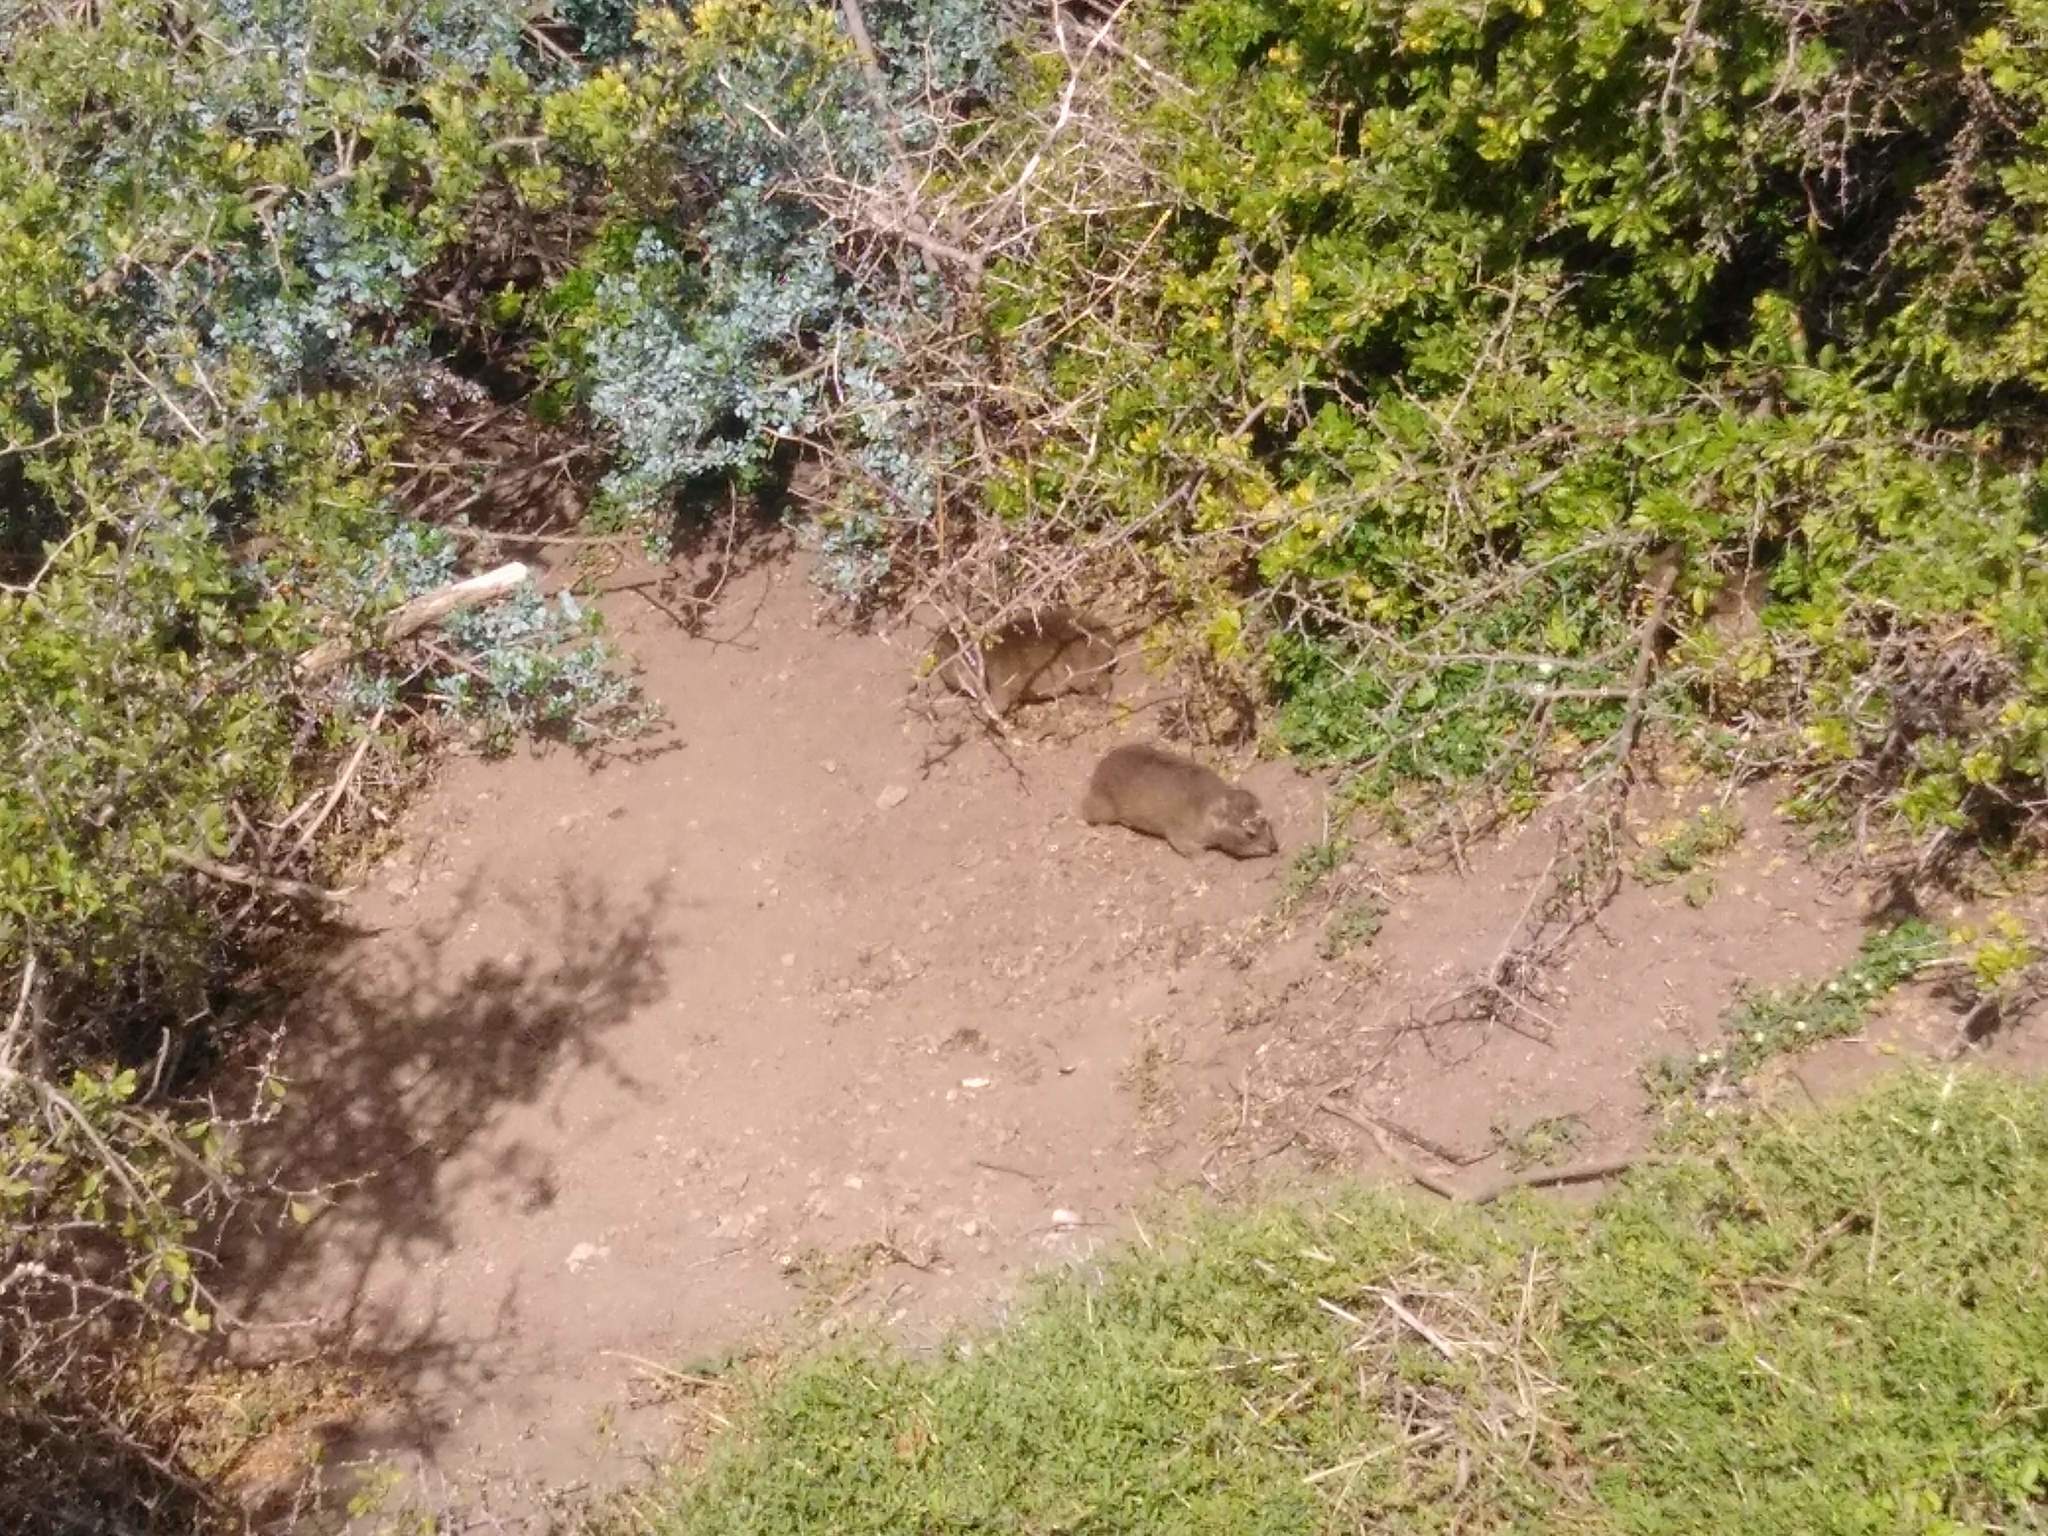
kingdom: Animalia
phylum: Chordata
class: Mammalia
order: Hyracoidea
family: Procaviidae
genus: Procavia
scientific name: Procavia capensis
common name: Rock hyrax
